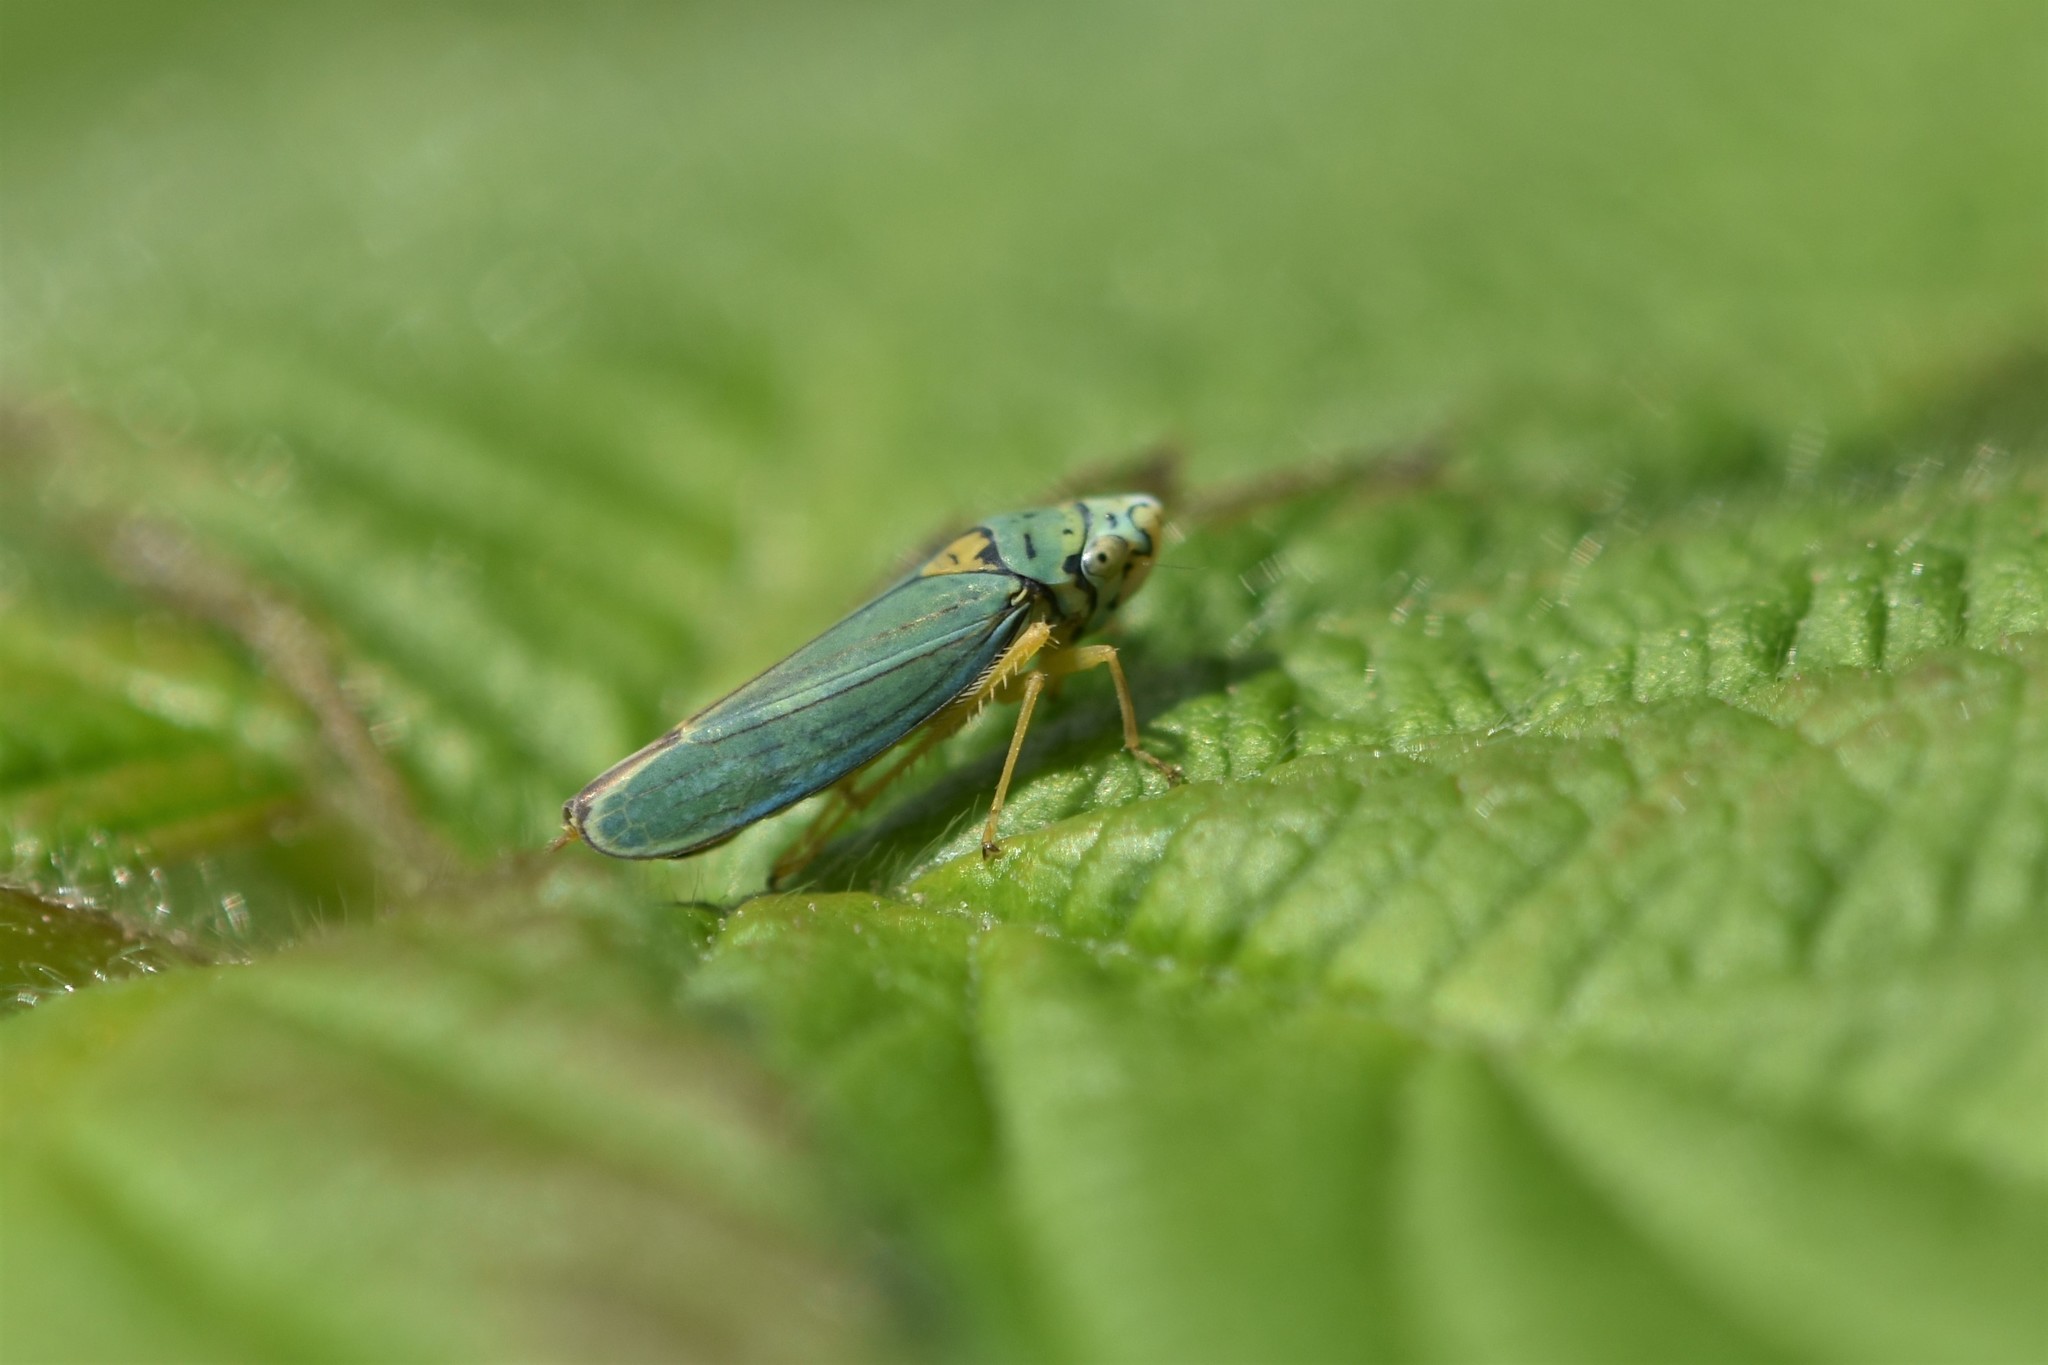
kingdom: Animalia
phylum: Arthropoda
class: Insecta
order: Hemiptera
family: Cicadellidae
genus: Graphocephala
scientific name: Graphocephala atropunctata
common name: Blue-green sharpshooter
